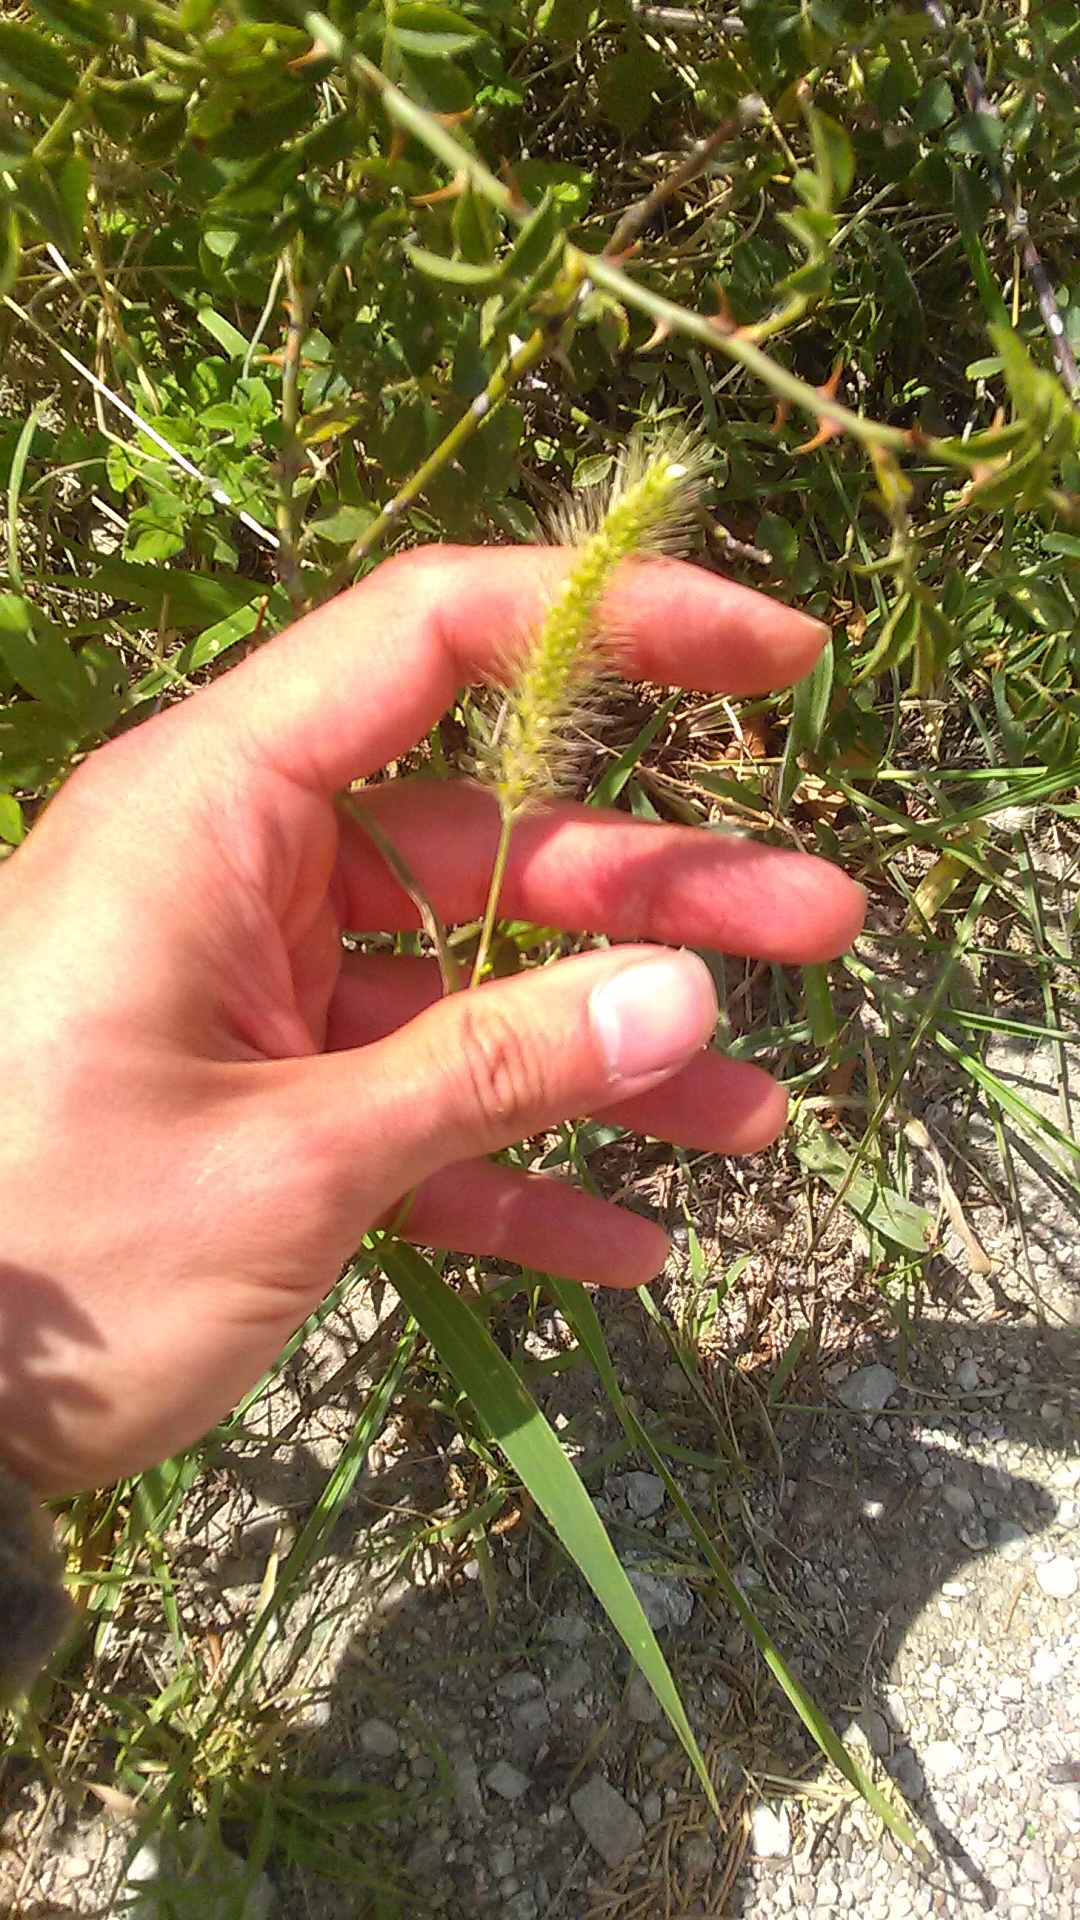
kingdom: Plantae
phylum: Tracheophyta
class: Liliopsida
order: Poales
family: Poaceae
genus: Setaria
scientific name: Setaria viridis
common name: Green bristlegrass
